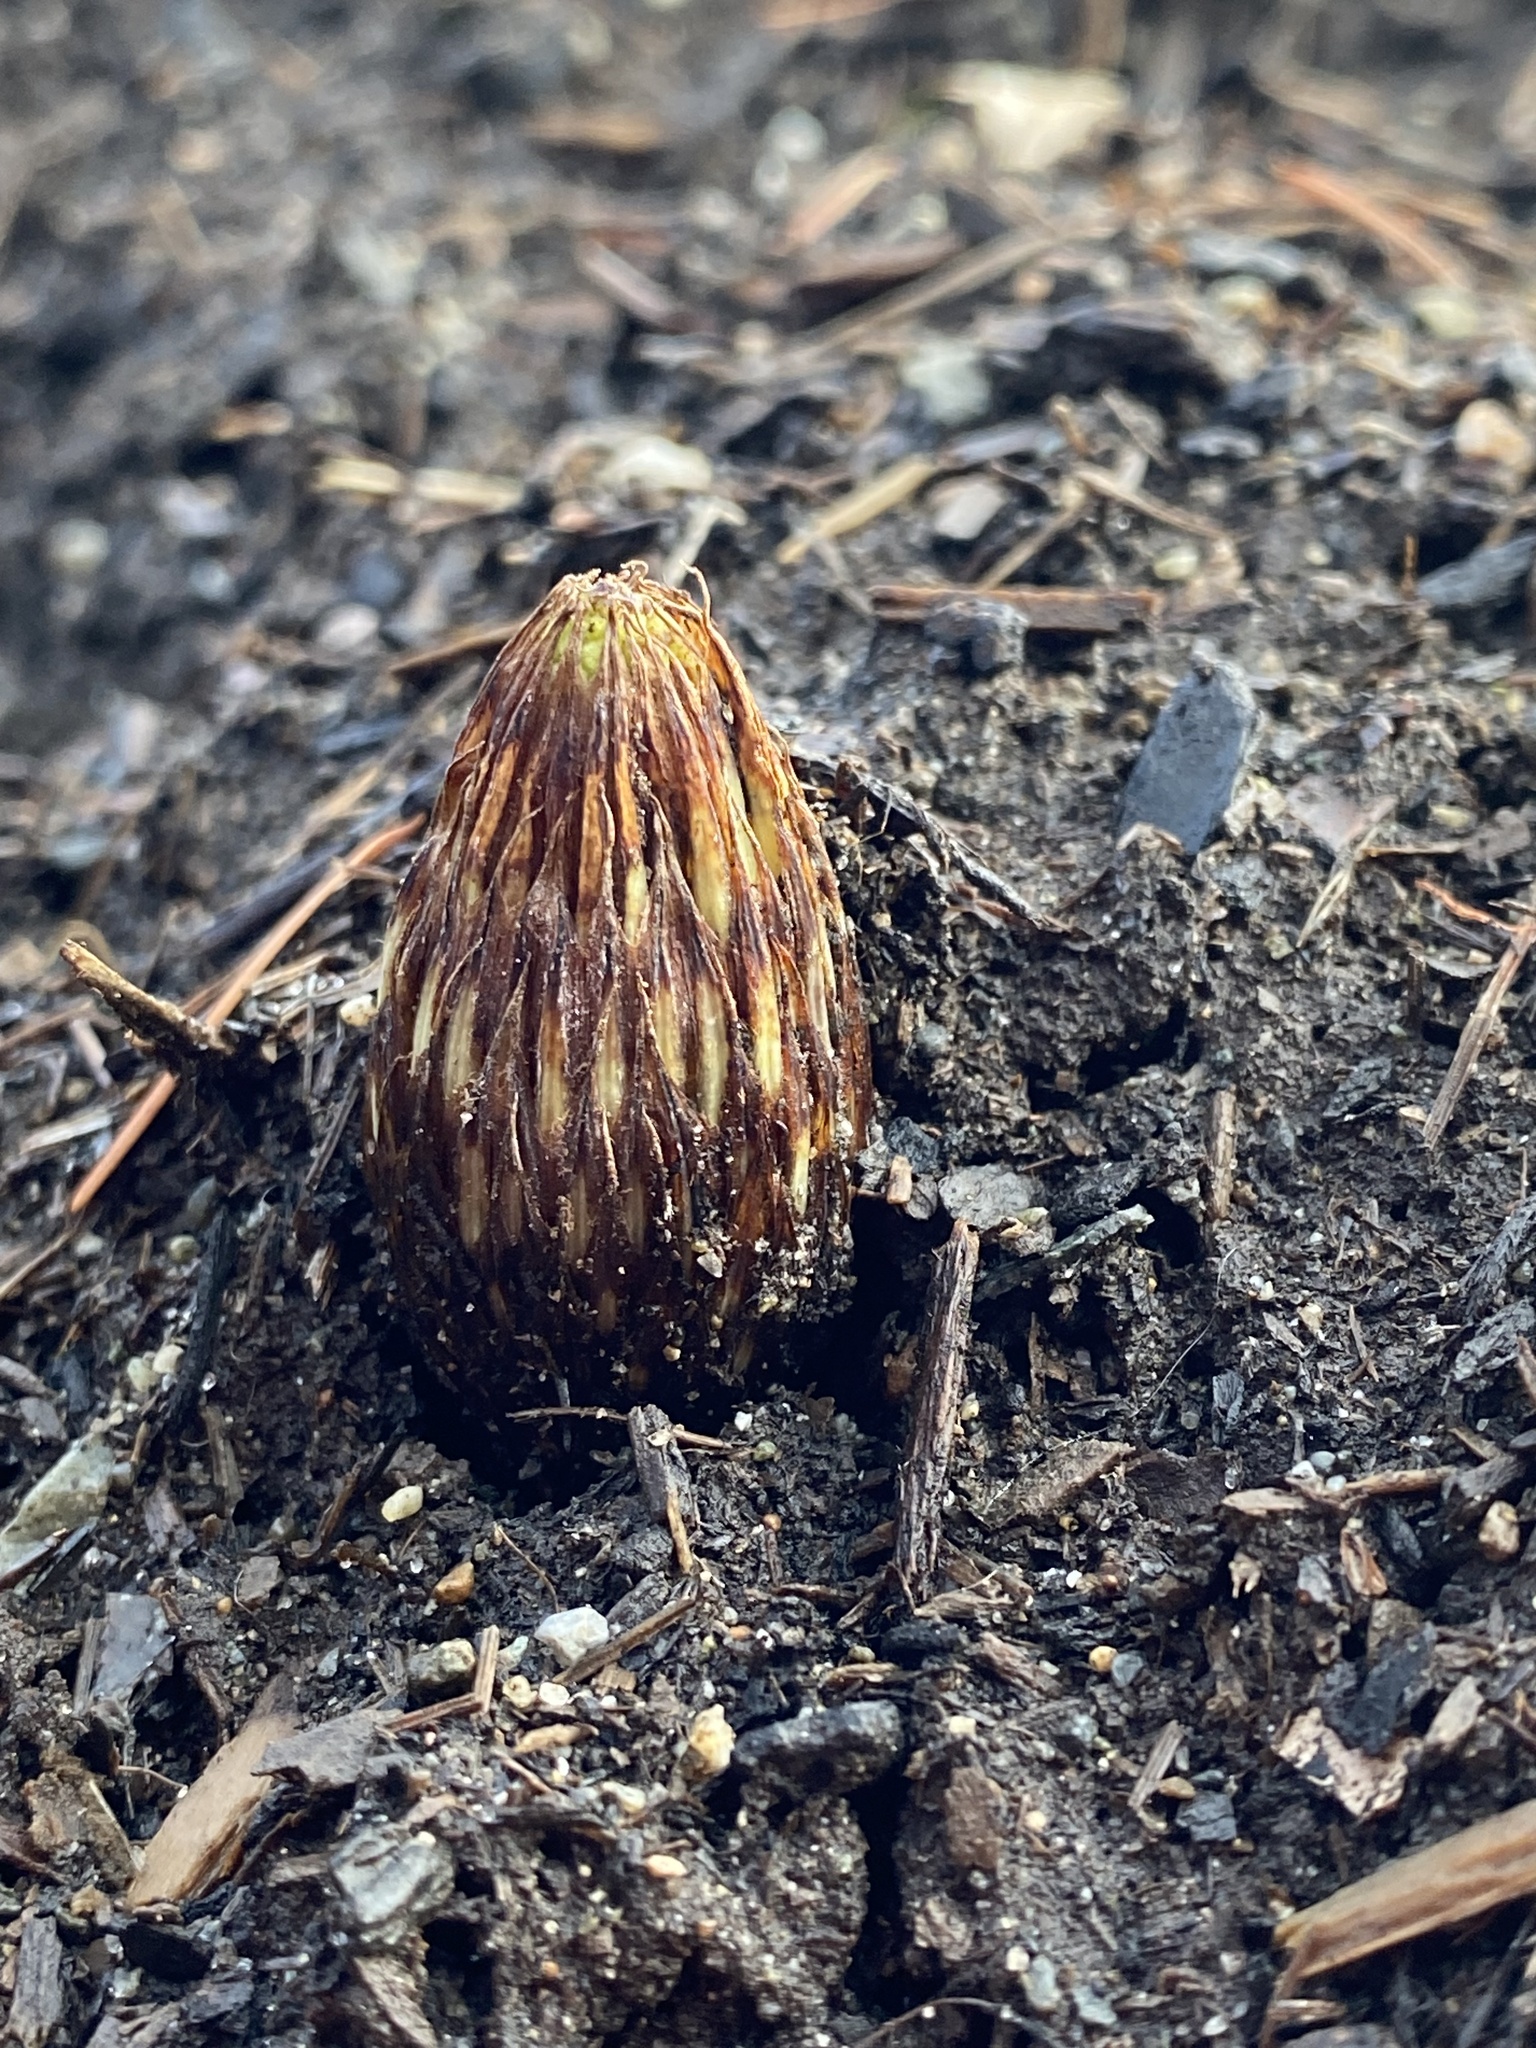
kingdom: Plantae
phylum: Tracheophyta
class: Polypodiopsida
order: Equisetales
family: Equisetaceae
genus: Equisetum
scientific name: Equisetum braunii
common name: Braun's horsetail
